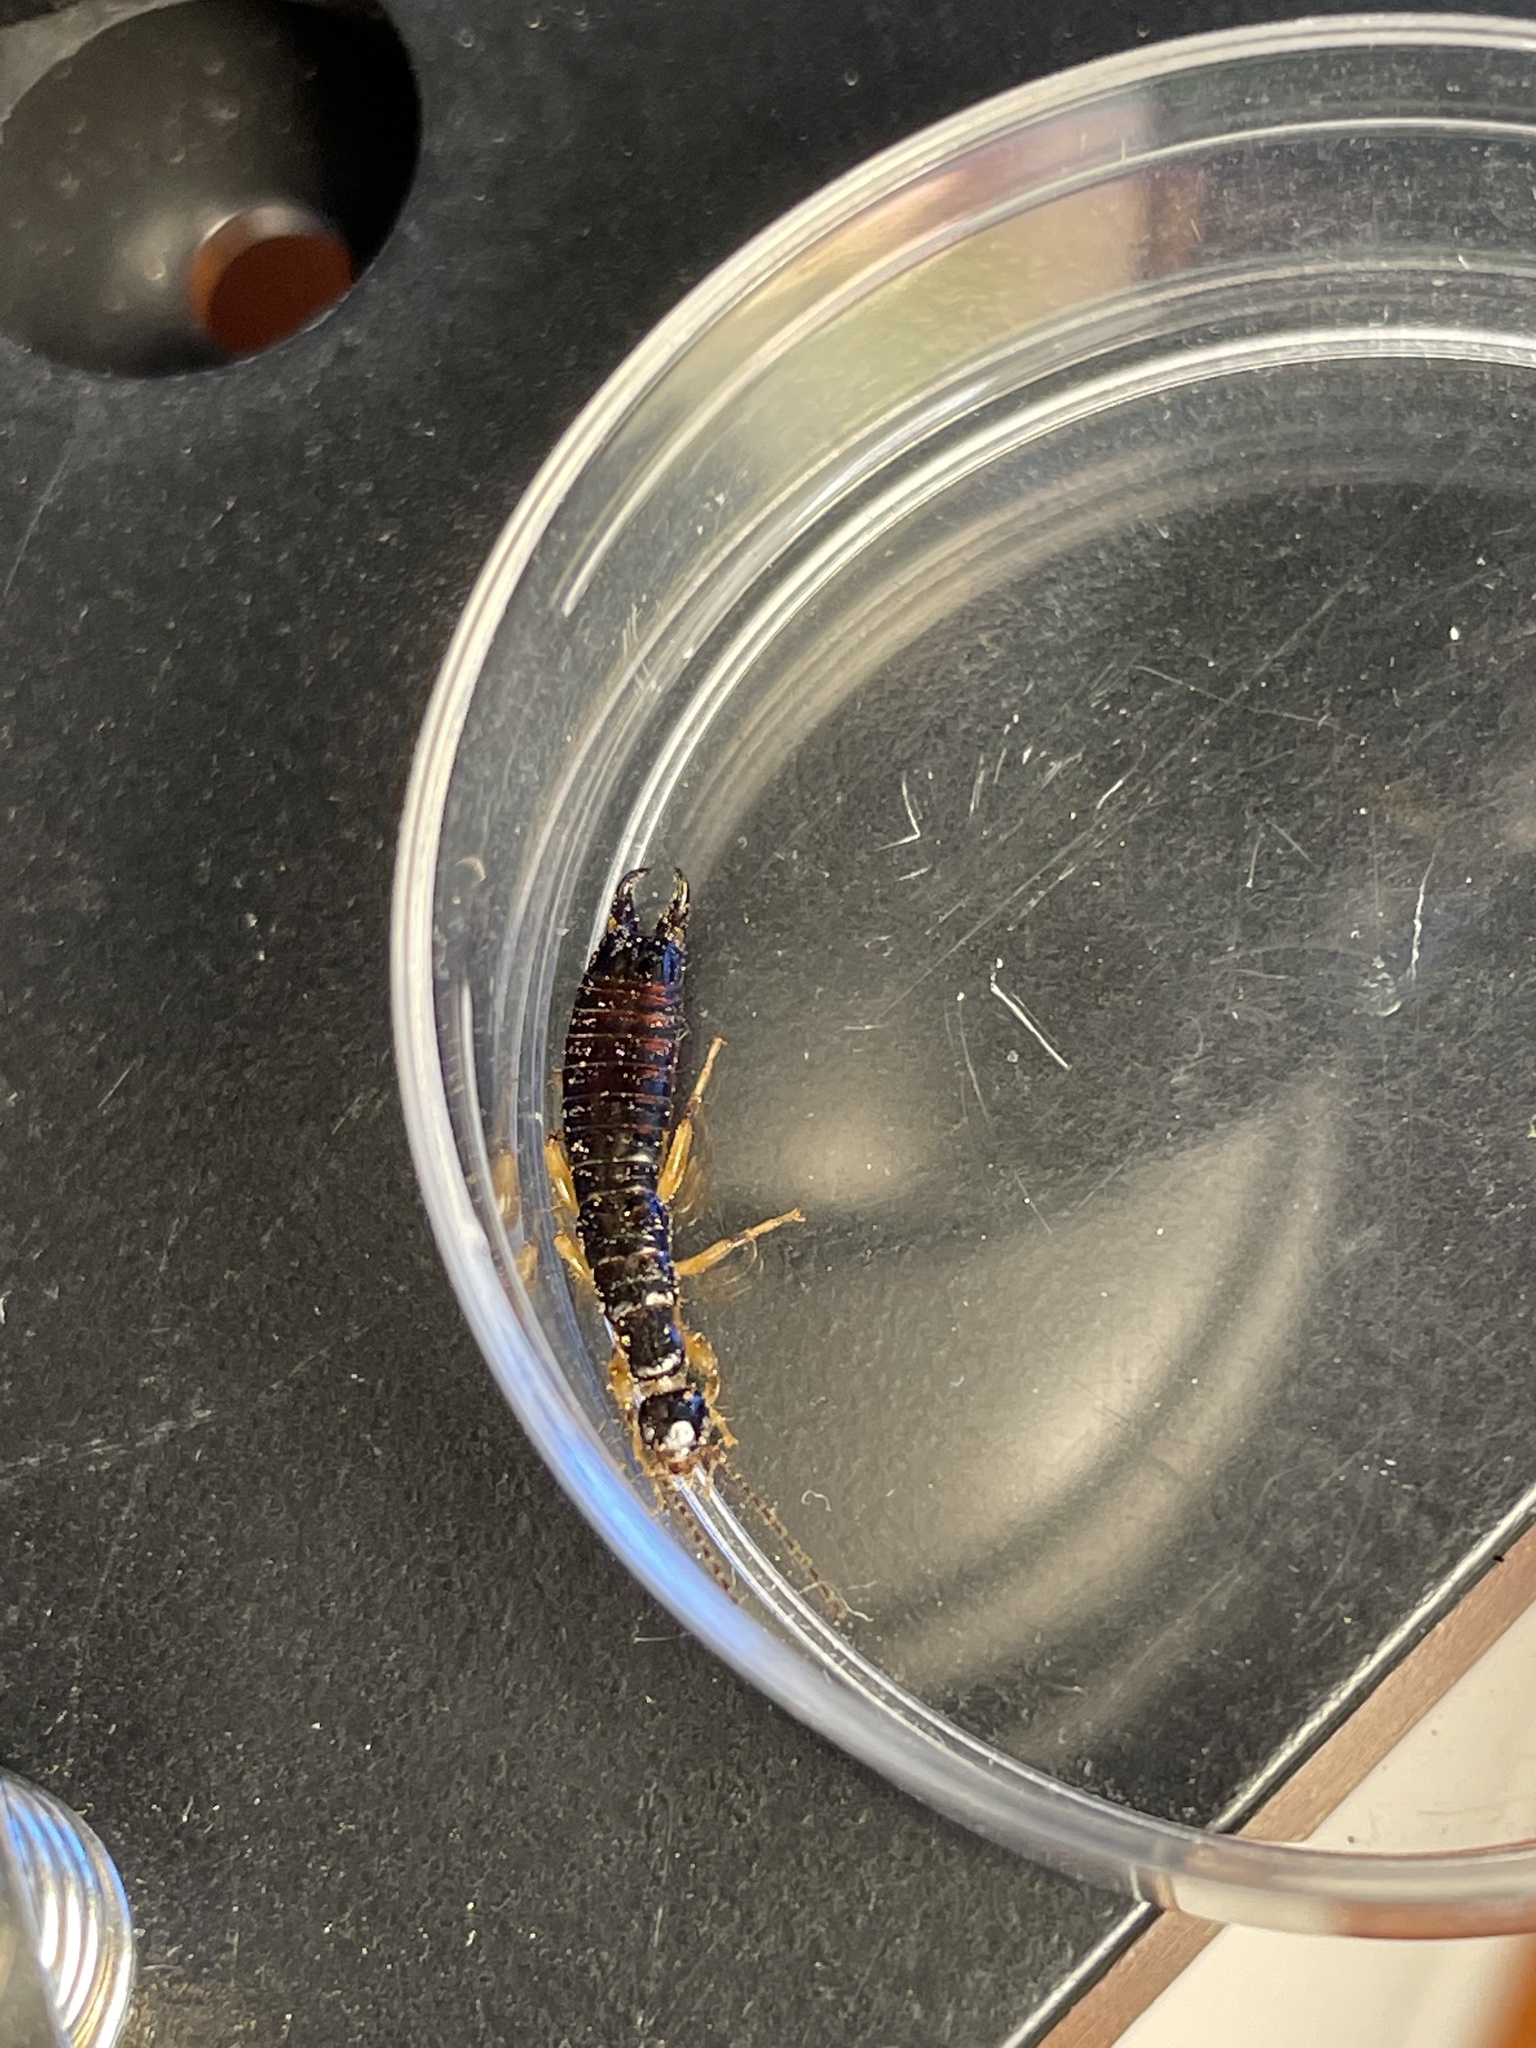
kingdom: Animalia
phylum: Arthropoda
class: Insecta
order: Dermaptera
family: Anisolabididae
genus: Euborellia
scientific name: Euborellia annulipes
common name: Ringlegged earwig
